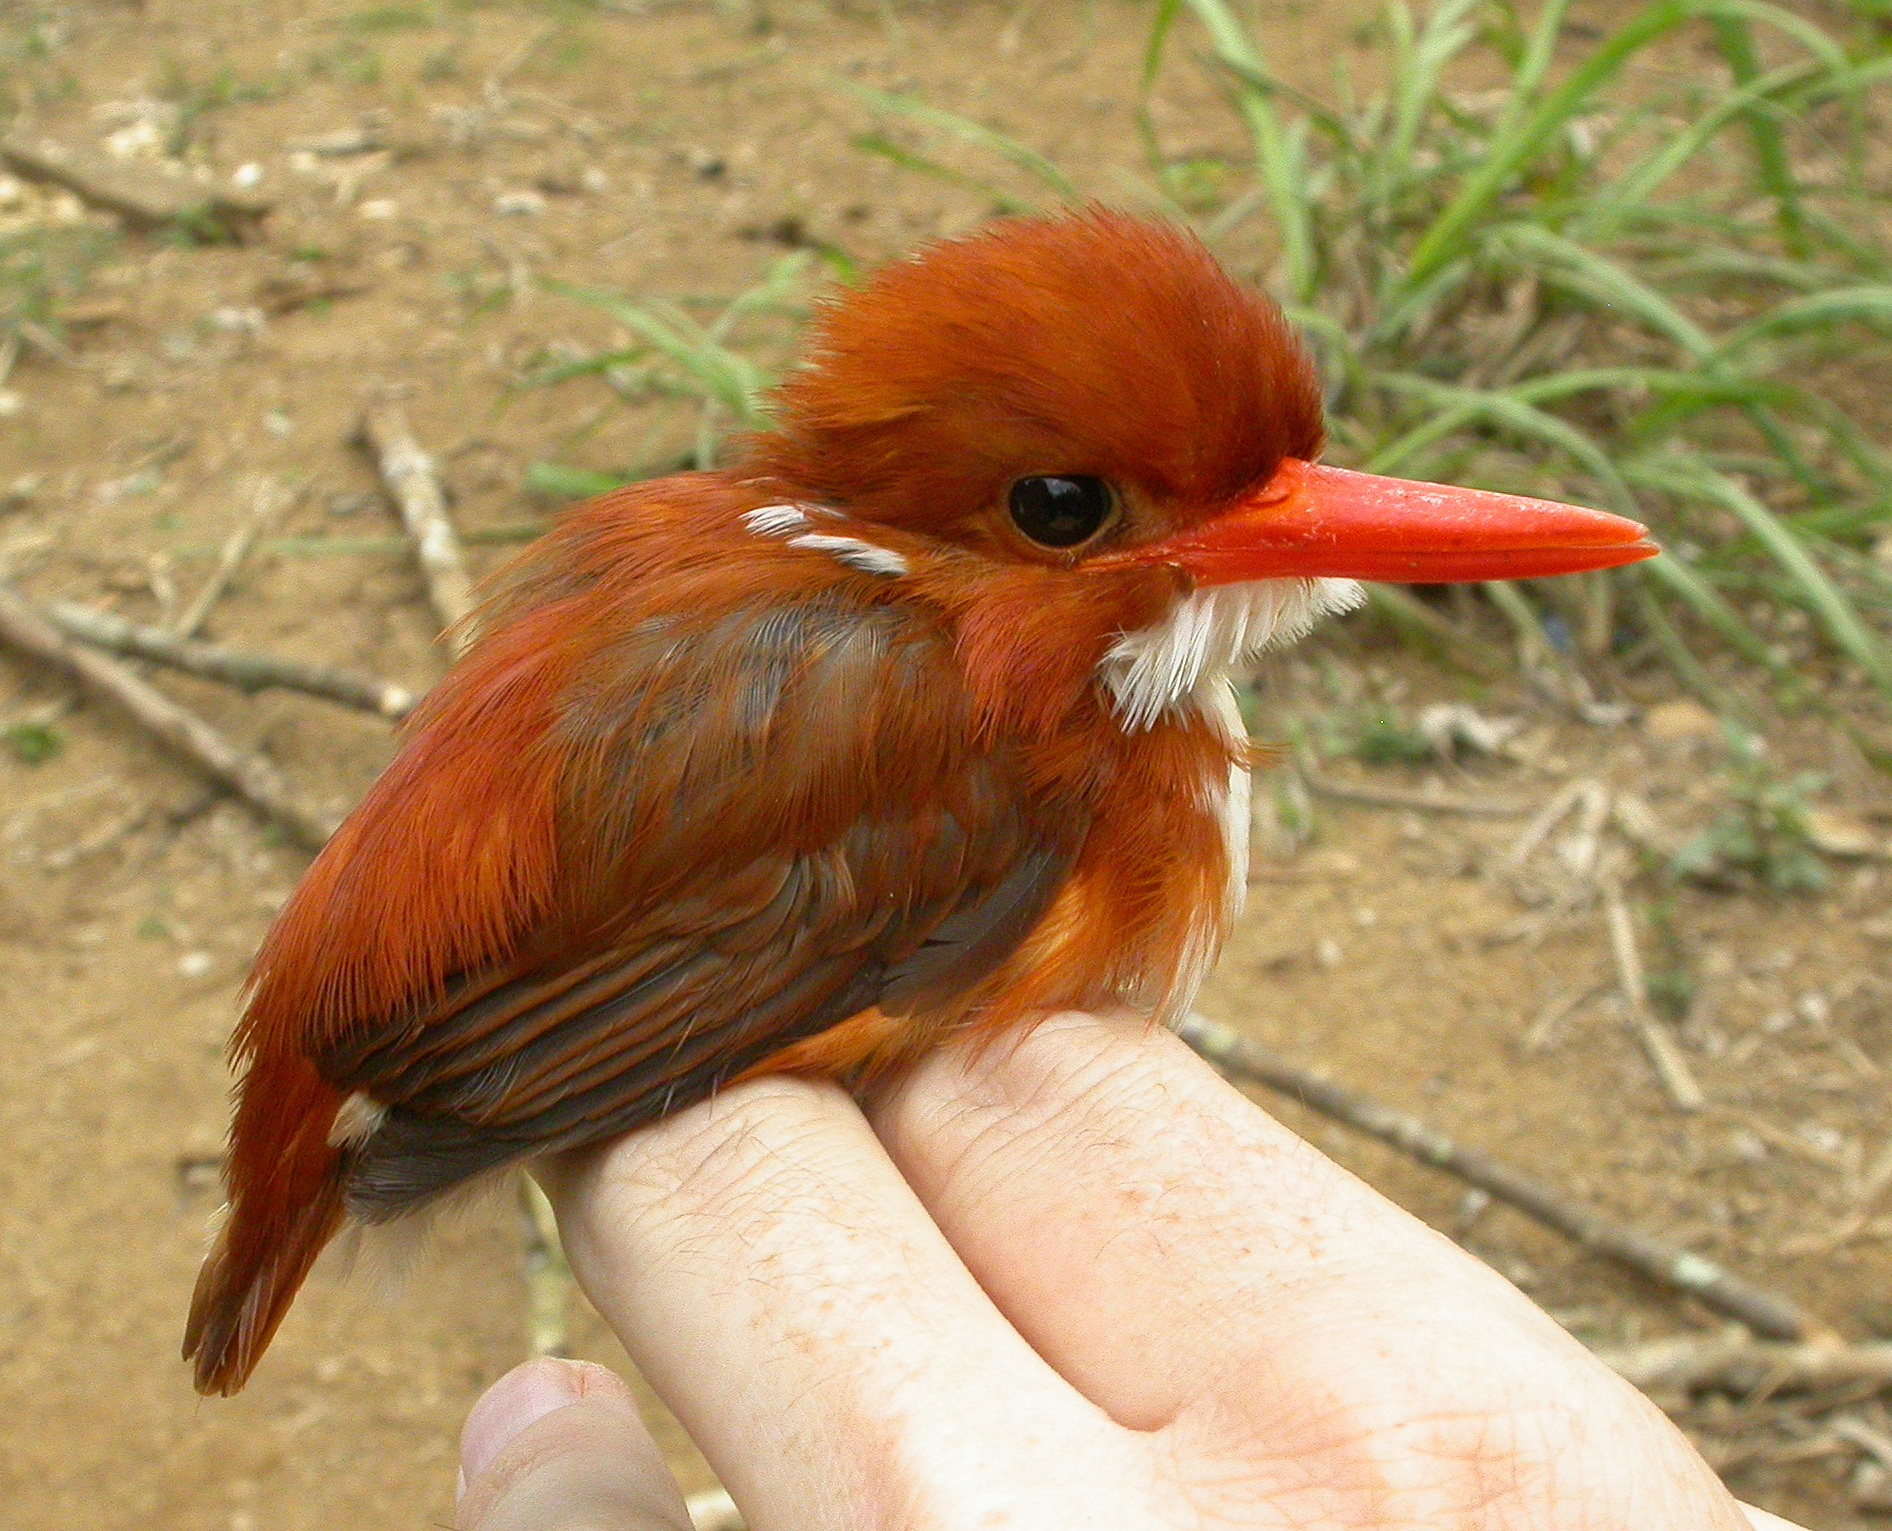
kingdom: Animalia
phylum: Chordata
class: Aves
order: Coraciiformes
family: Alcedinidae
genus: Corythornis
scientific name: Corythornis madagascariensis
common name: Madagascar pygmy-kingfisher
